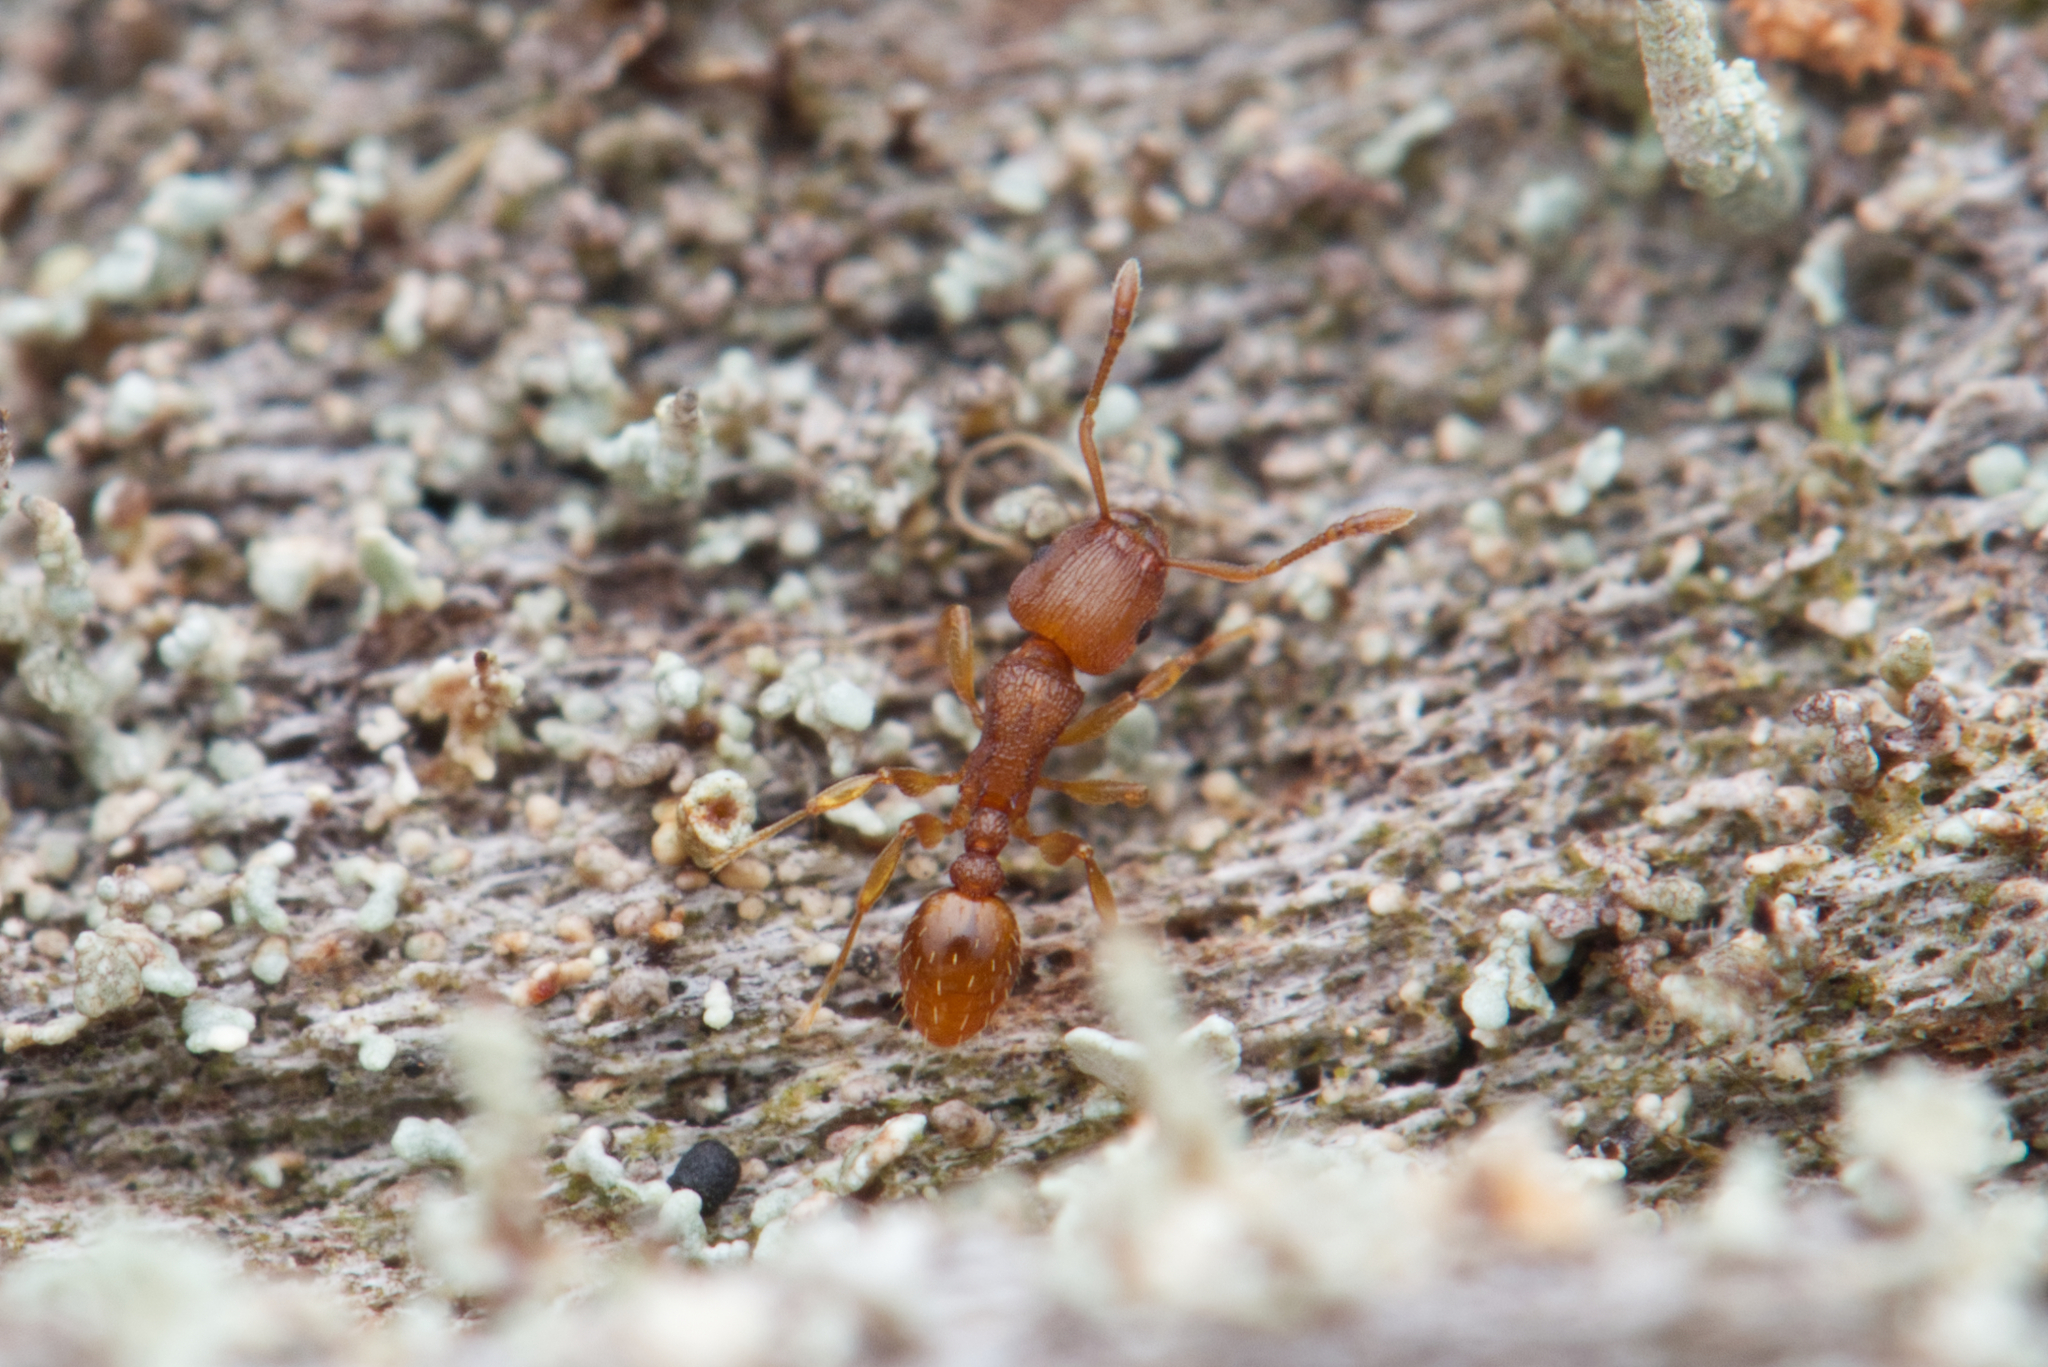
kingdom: Animalia
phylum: Arthropoda
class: Insecta
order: Hymenoptera
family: Formicidae
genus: Tetramorium
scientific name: Tetramorium simillimum
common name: Ant
